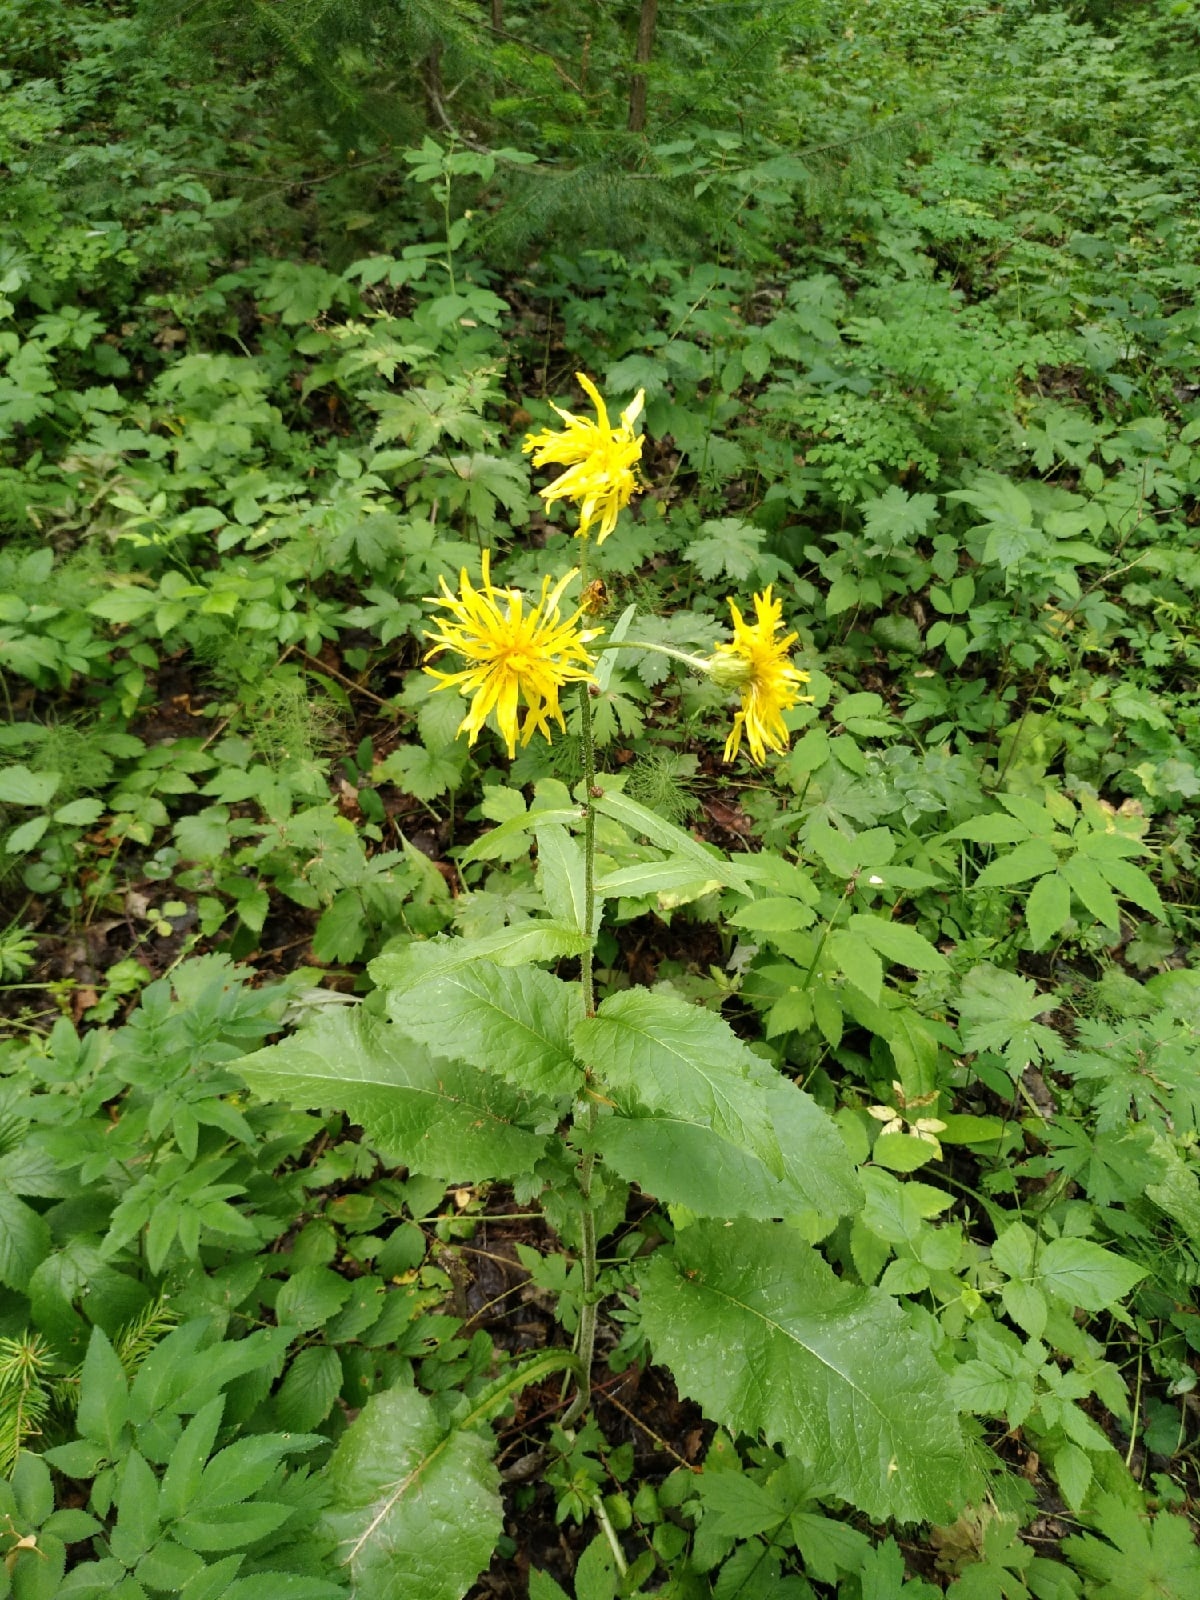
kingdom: Plantae
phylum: Tracheophyta
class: Magnoliopsida
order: Asterales
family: Asteraceae
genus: Crepis
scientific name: Crepis sibirica
